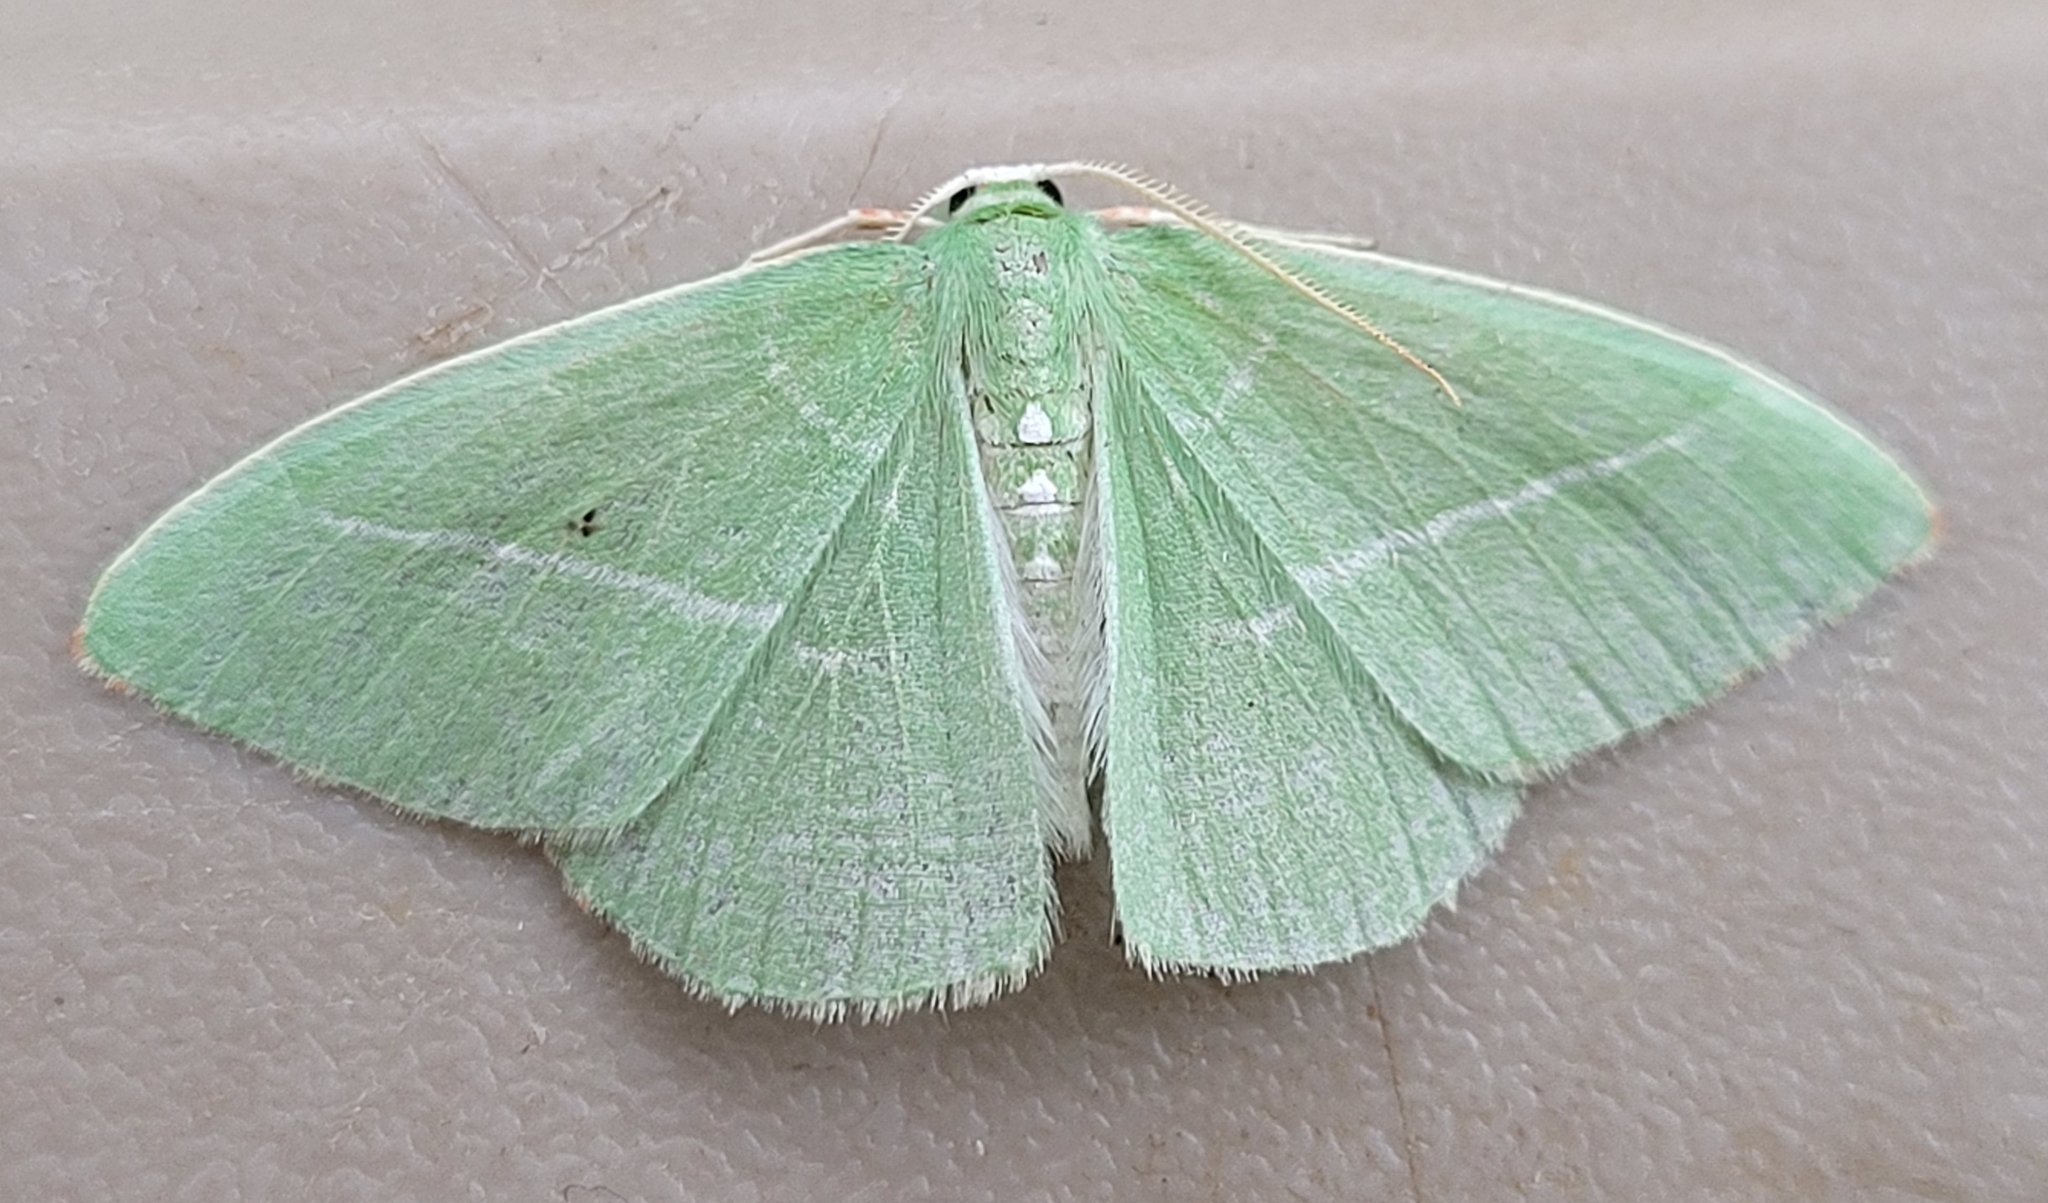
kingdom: Animalia
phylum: Arthropoda
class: Insecta
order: Lepidoptera
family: Geometridae
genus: Nemoria
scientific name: Nemoria unitaria
